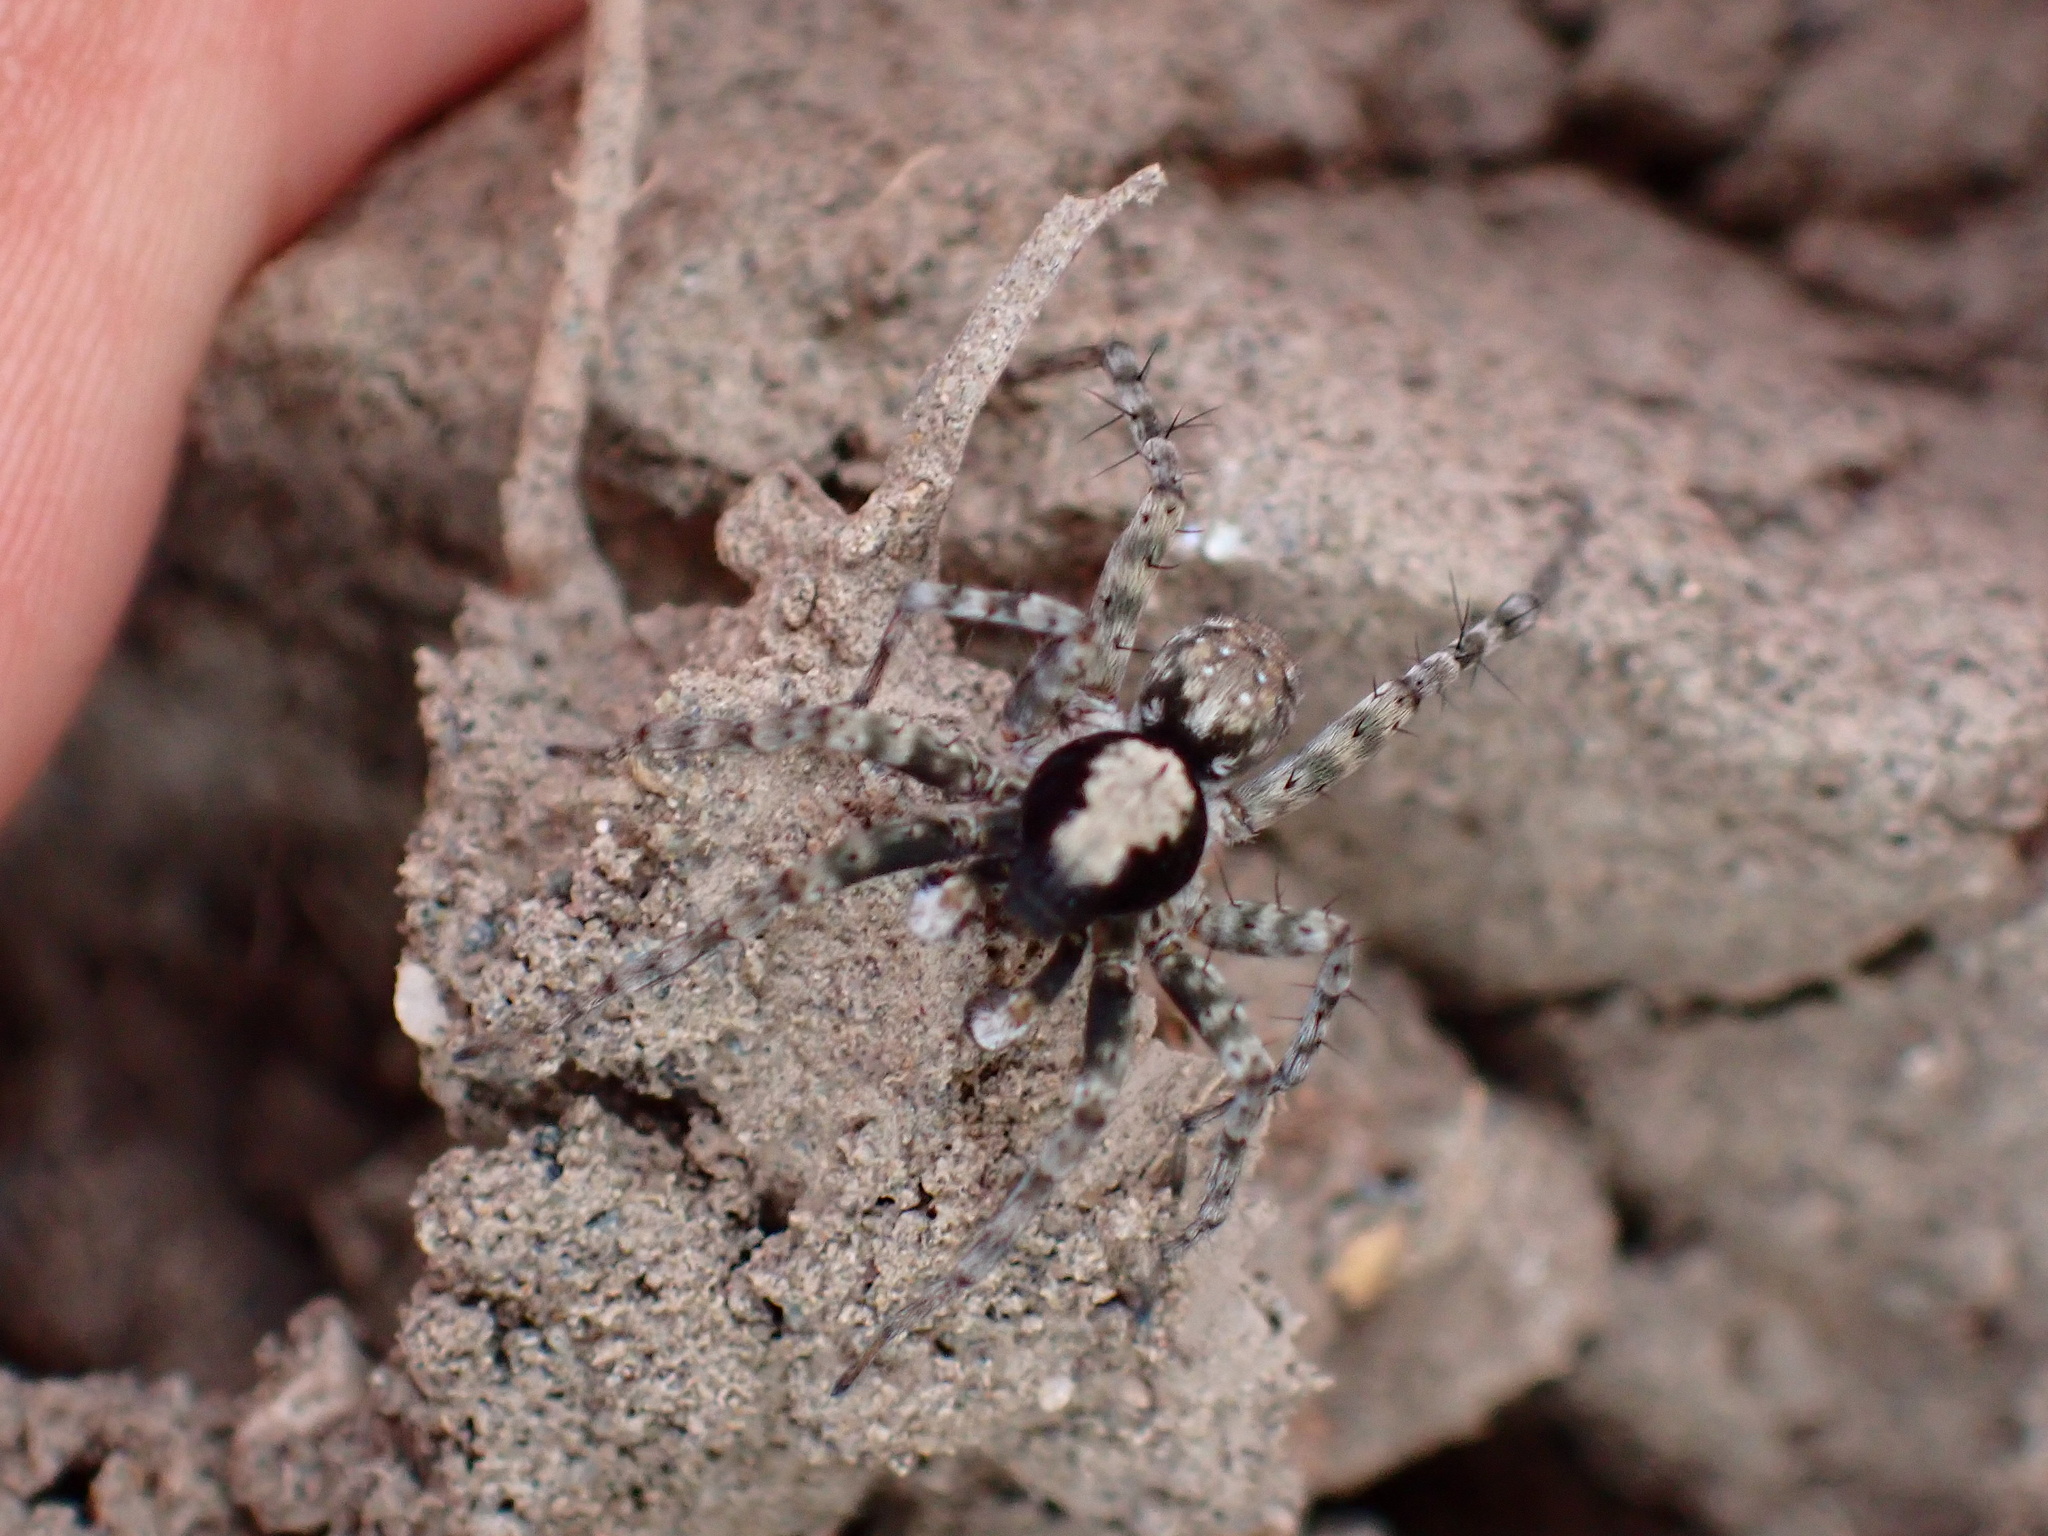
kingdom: Animalia
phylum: Arthropoda
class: Arachnida
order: Araneae
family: Lycosidae
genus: Wadicosa
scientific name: Wadicosa fidelis
